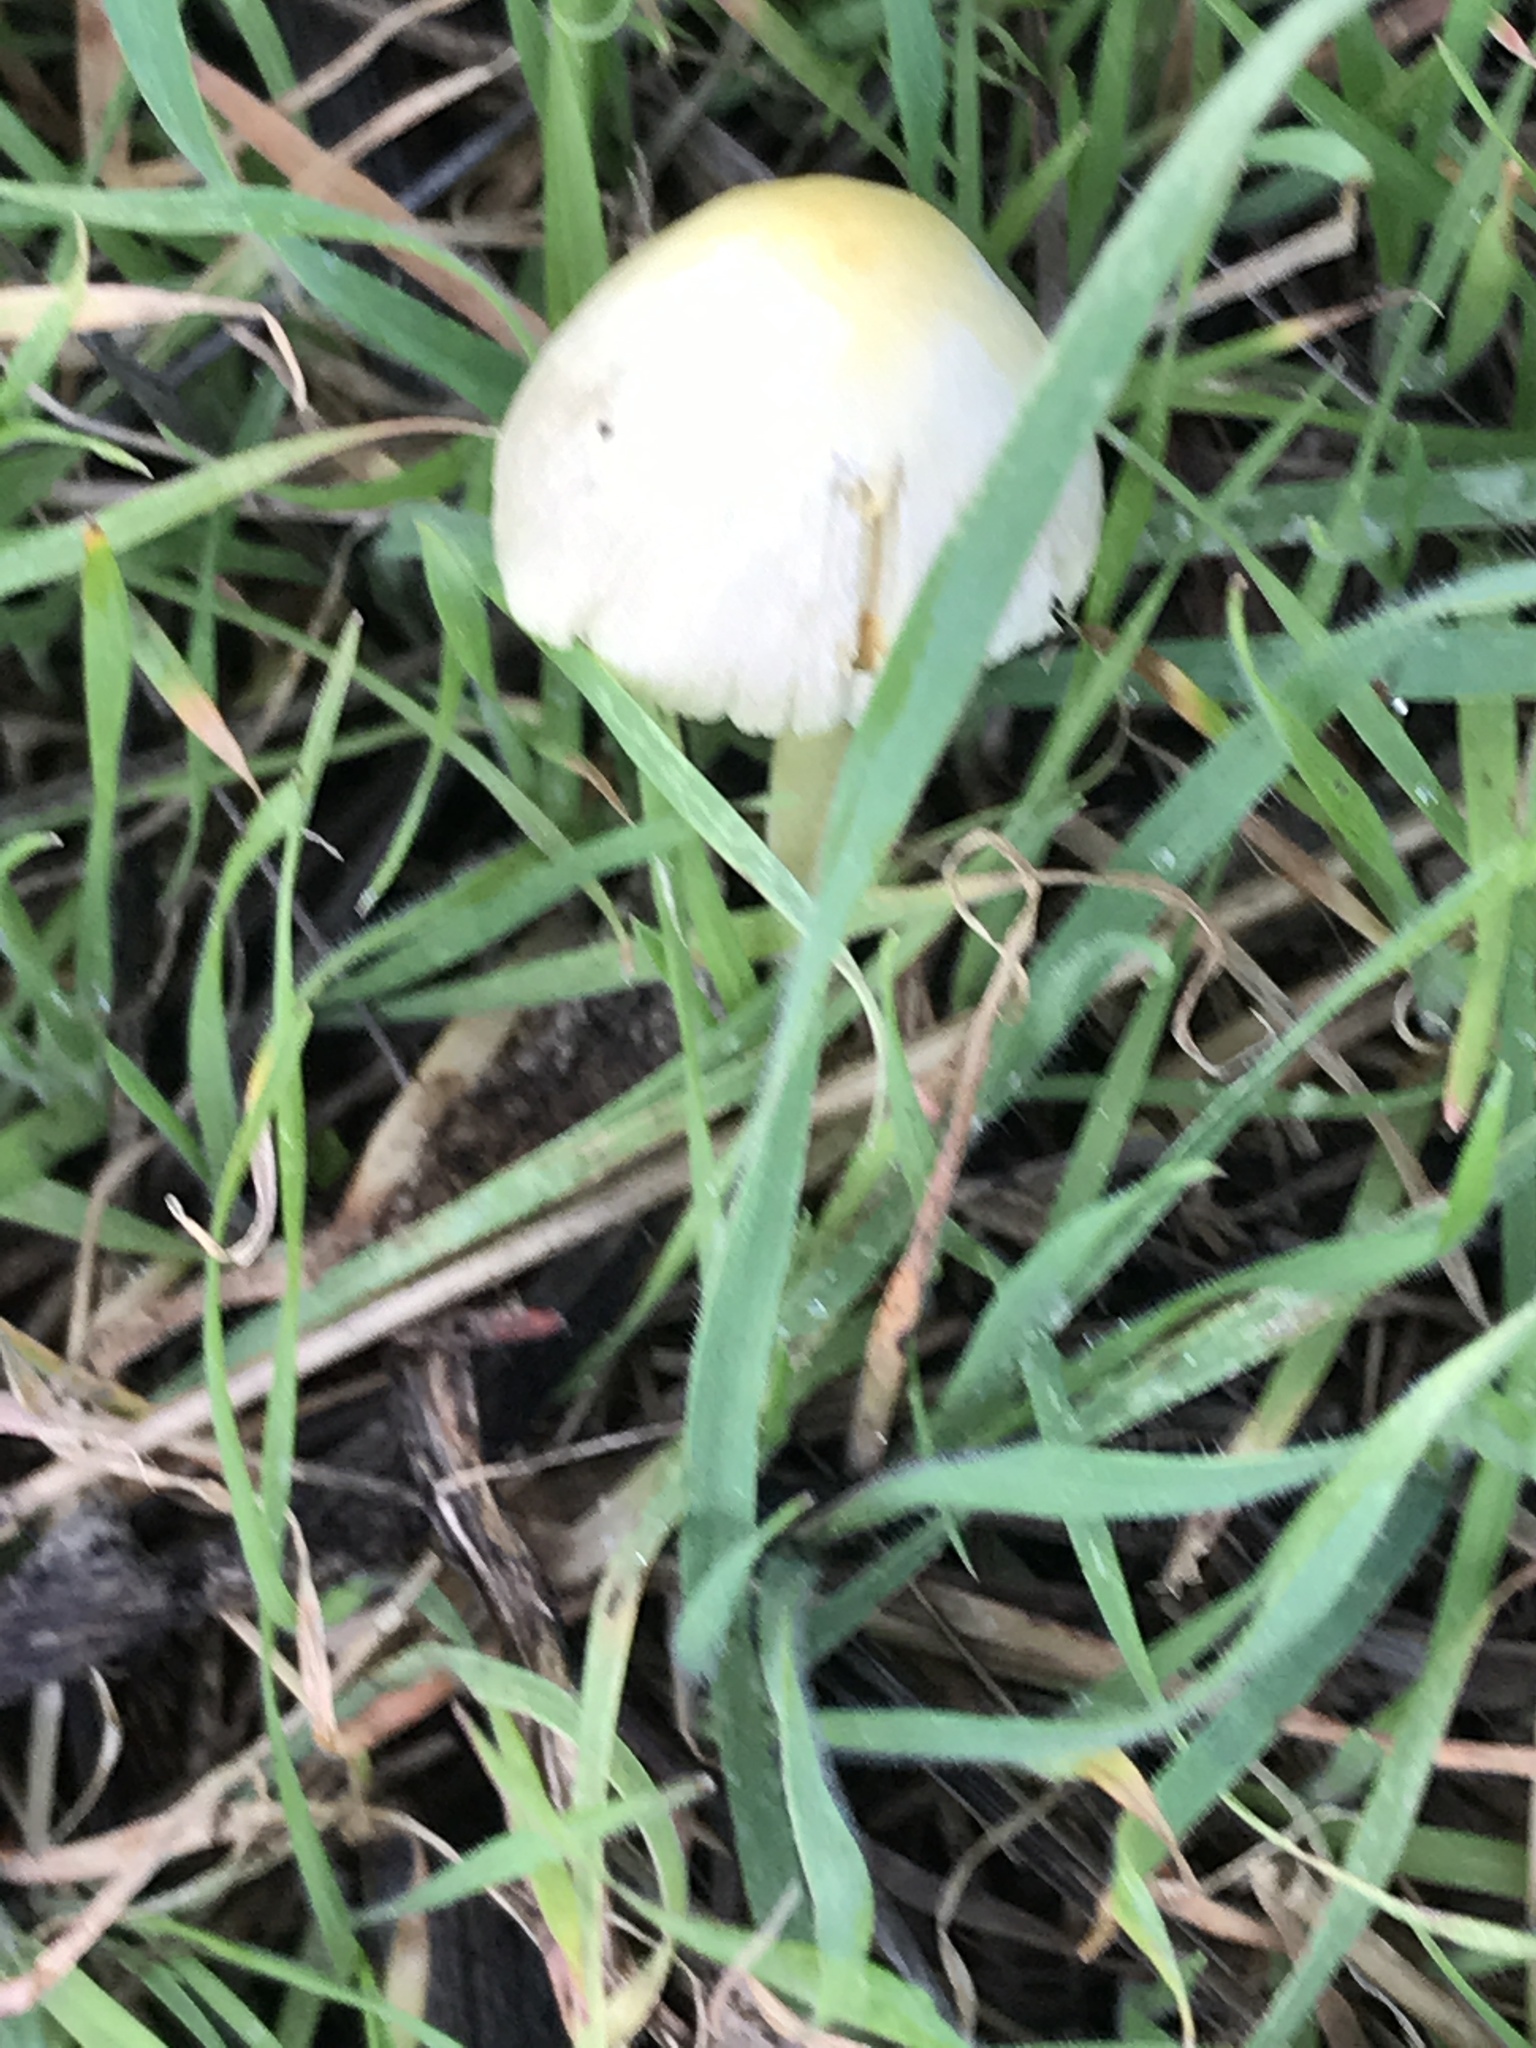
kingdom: Fungi
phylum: Basidiomycota
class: Agaricomycetes
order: Agaricales
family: Bolbitiaceae
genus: Bolbitius
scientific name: Bolbitius titubans
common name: Yellow fieldcap
